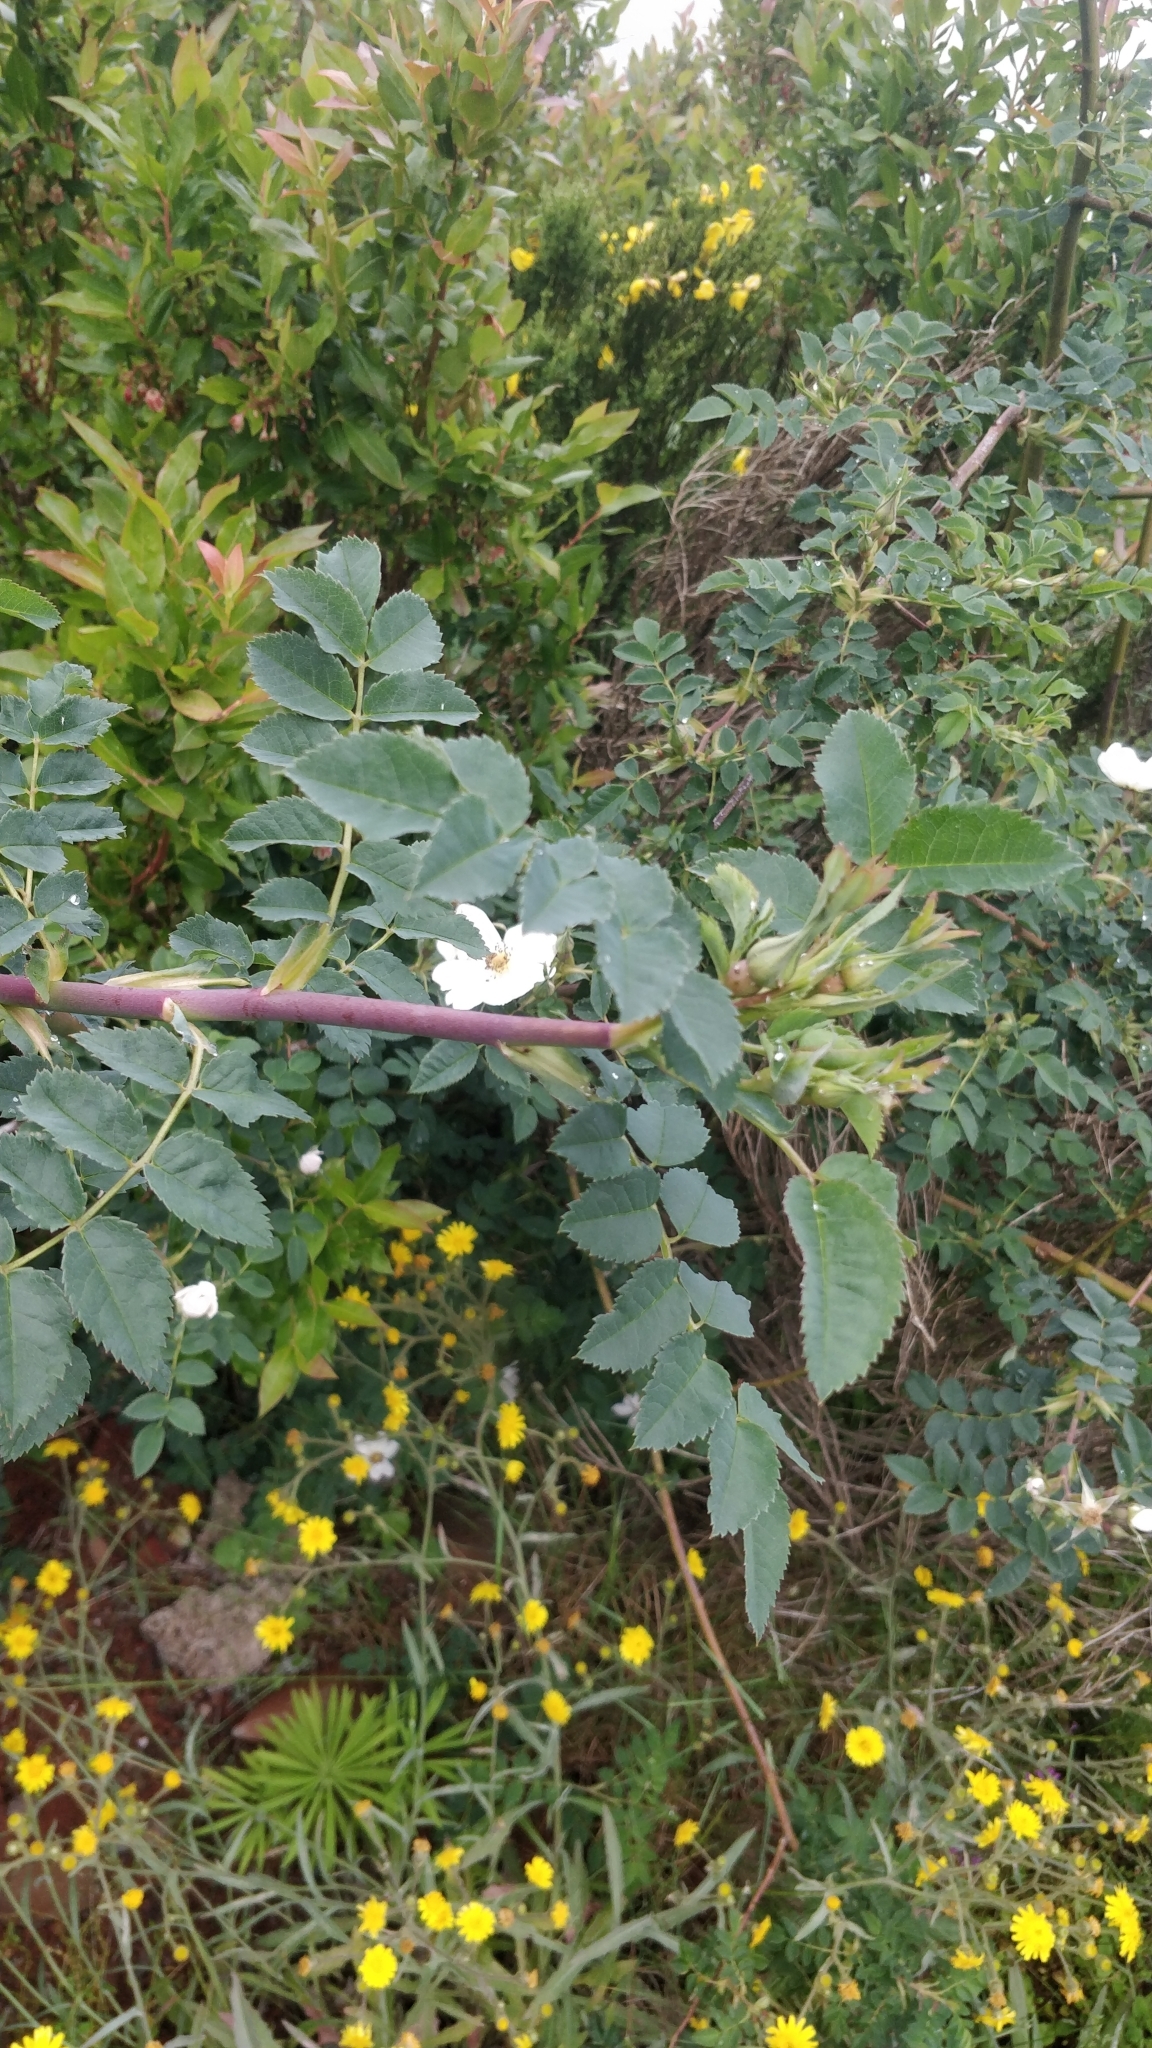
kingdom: Plantae
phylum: Tracheophyta
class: Magnoliopsida
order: Rosales
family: Rosaceae
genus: Rosa
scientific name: Rosa canina
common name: Dog rose
